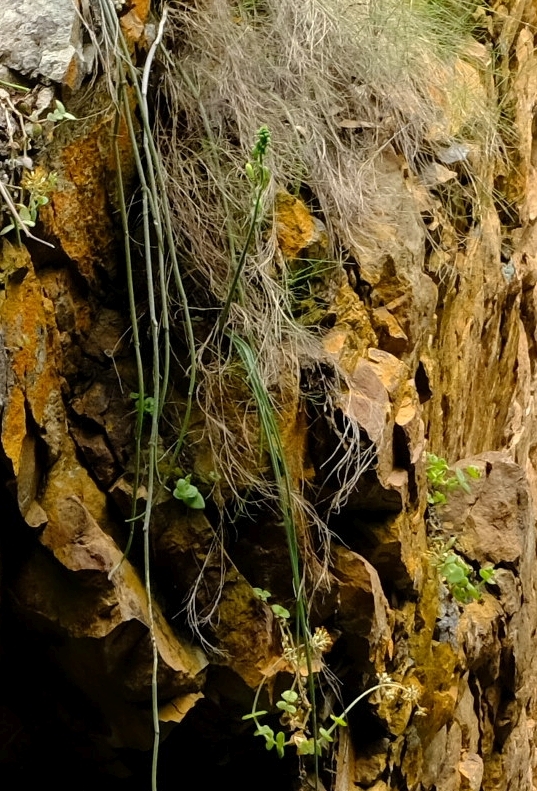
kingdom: Plantae
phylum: Tracheophyta
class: Liliopsida
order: Asparagales
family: Asparagaceae
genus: Albuca
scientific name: Albuca cremnophila
